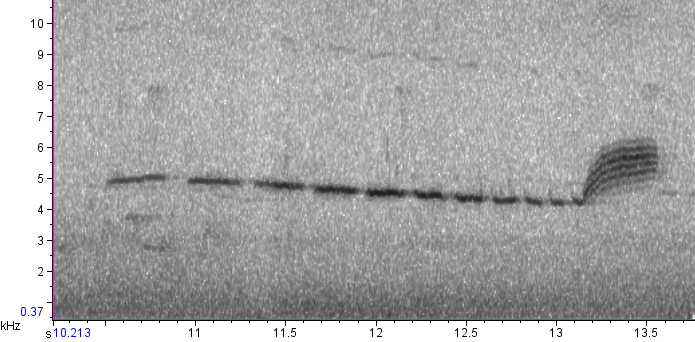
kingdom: Animalia
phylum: Chordata
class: Aves
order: Passeriformes
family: Parulidae
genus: Setophaga
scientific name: Setophaga discolor
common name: Prairie warbler
